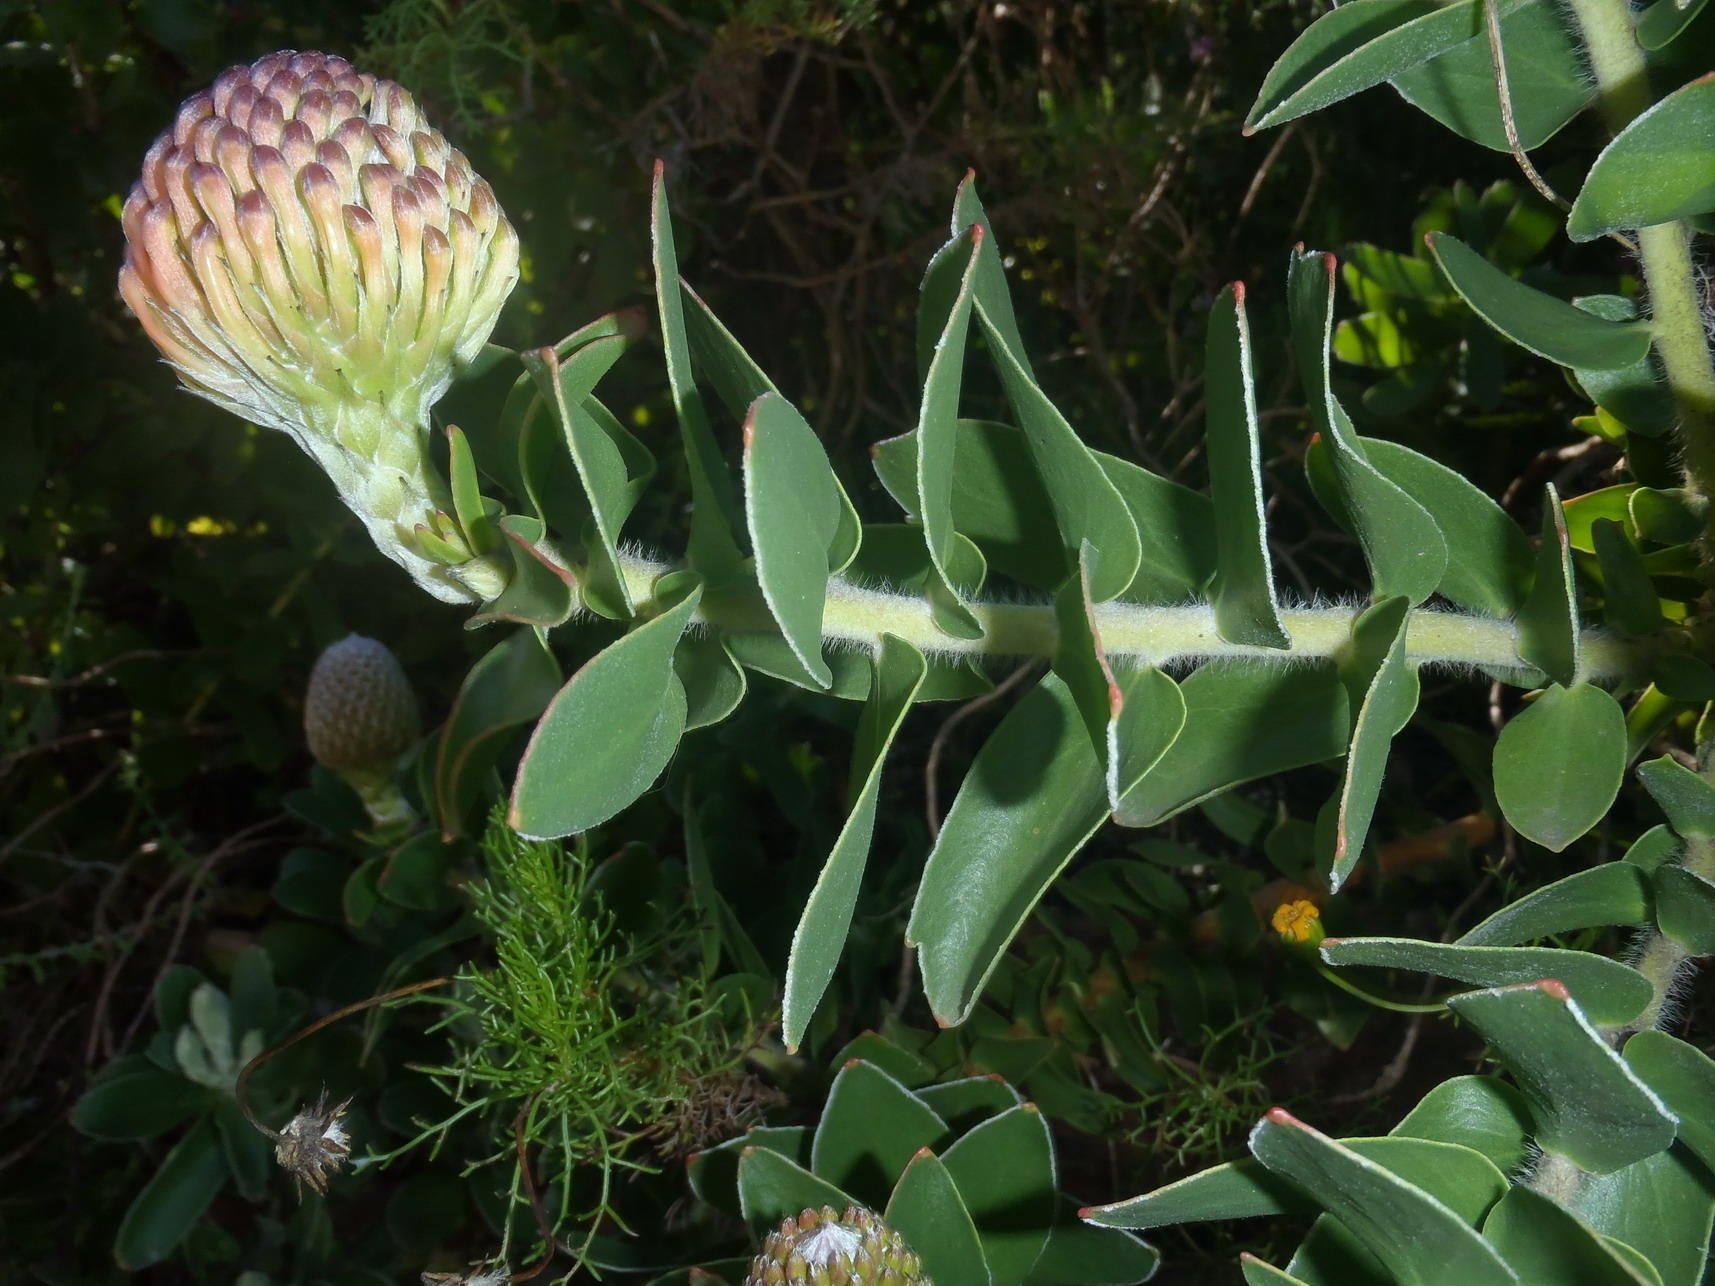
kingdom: Plantae
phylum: Tracheophyta
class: Magnoliopsida
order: Proteales
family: Proteaceae
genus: Leucospermum
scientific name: Leucospermum cordifolium
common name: Red pincushion-protea
